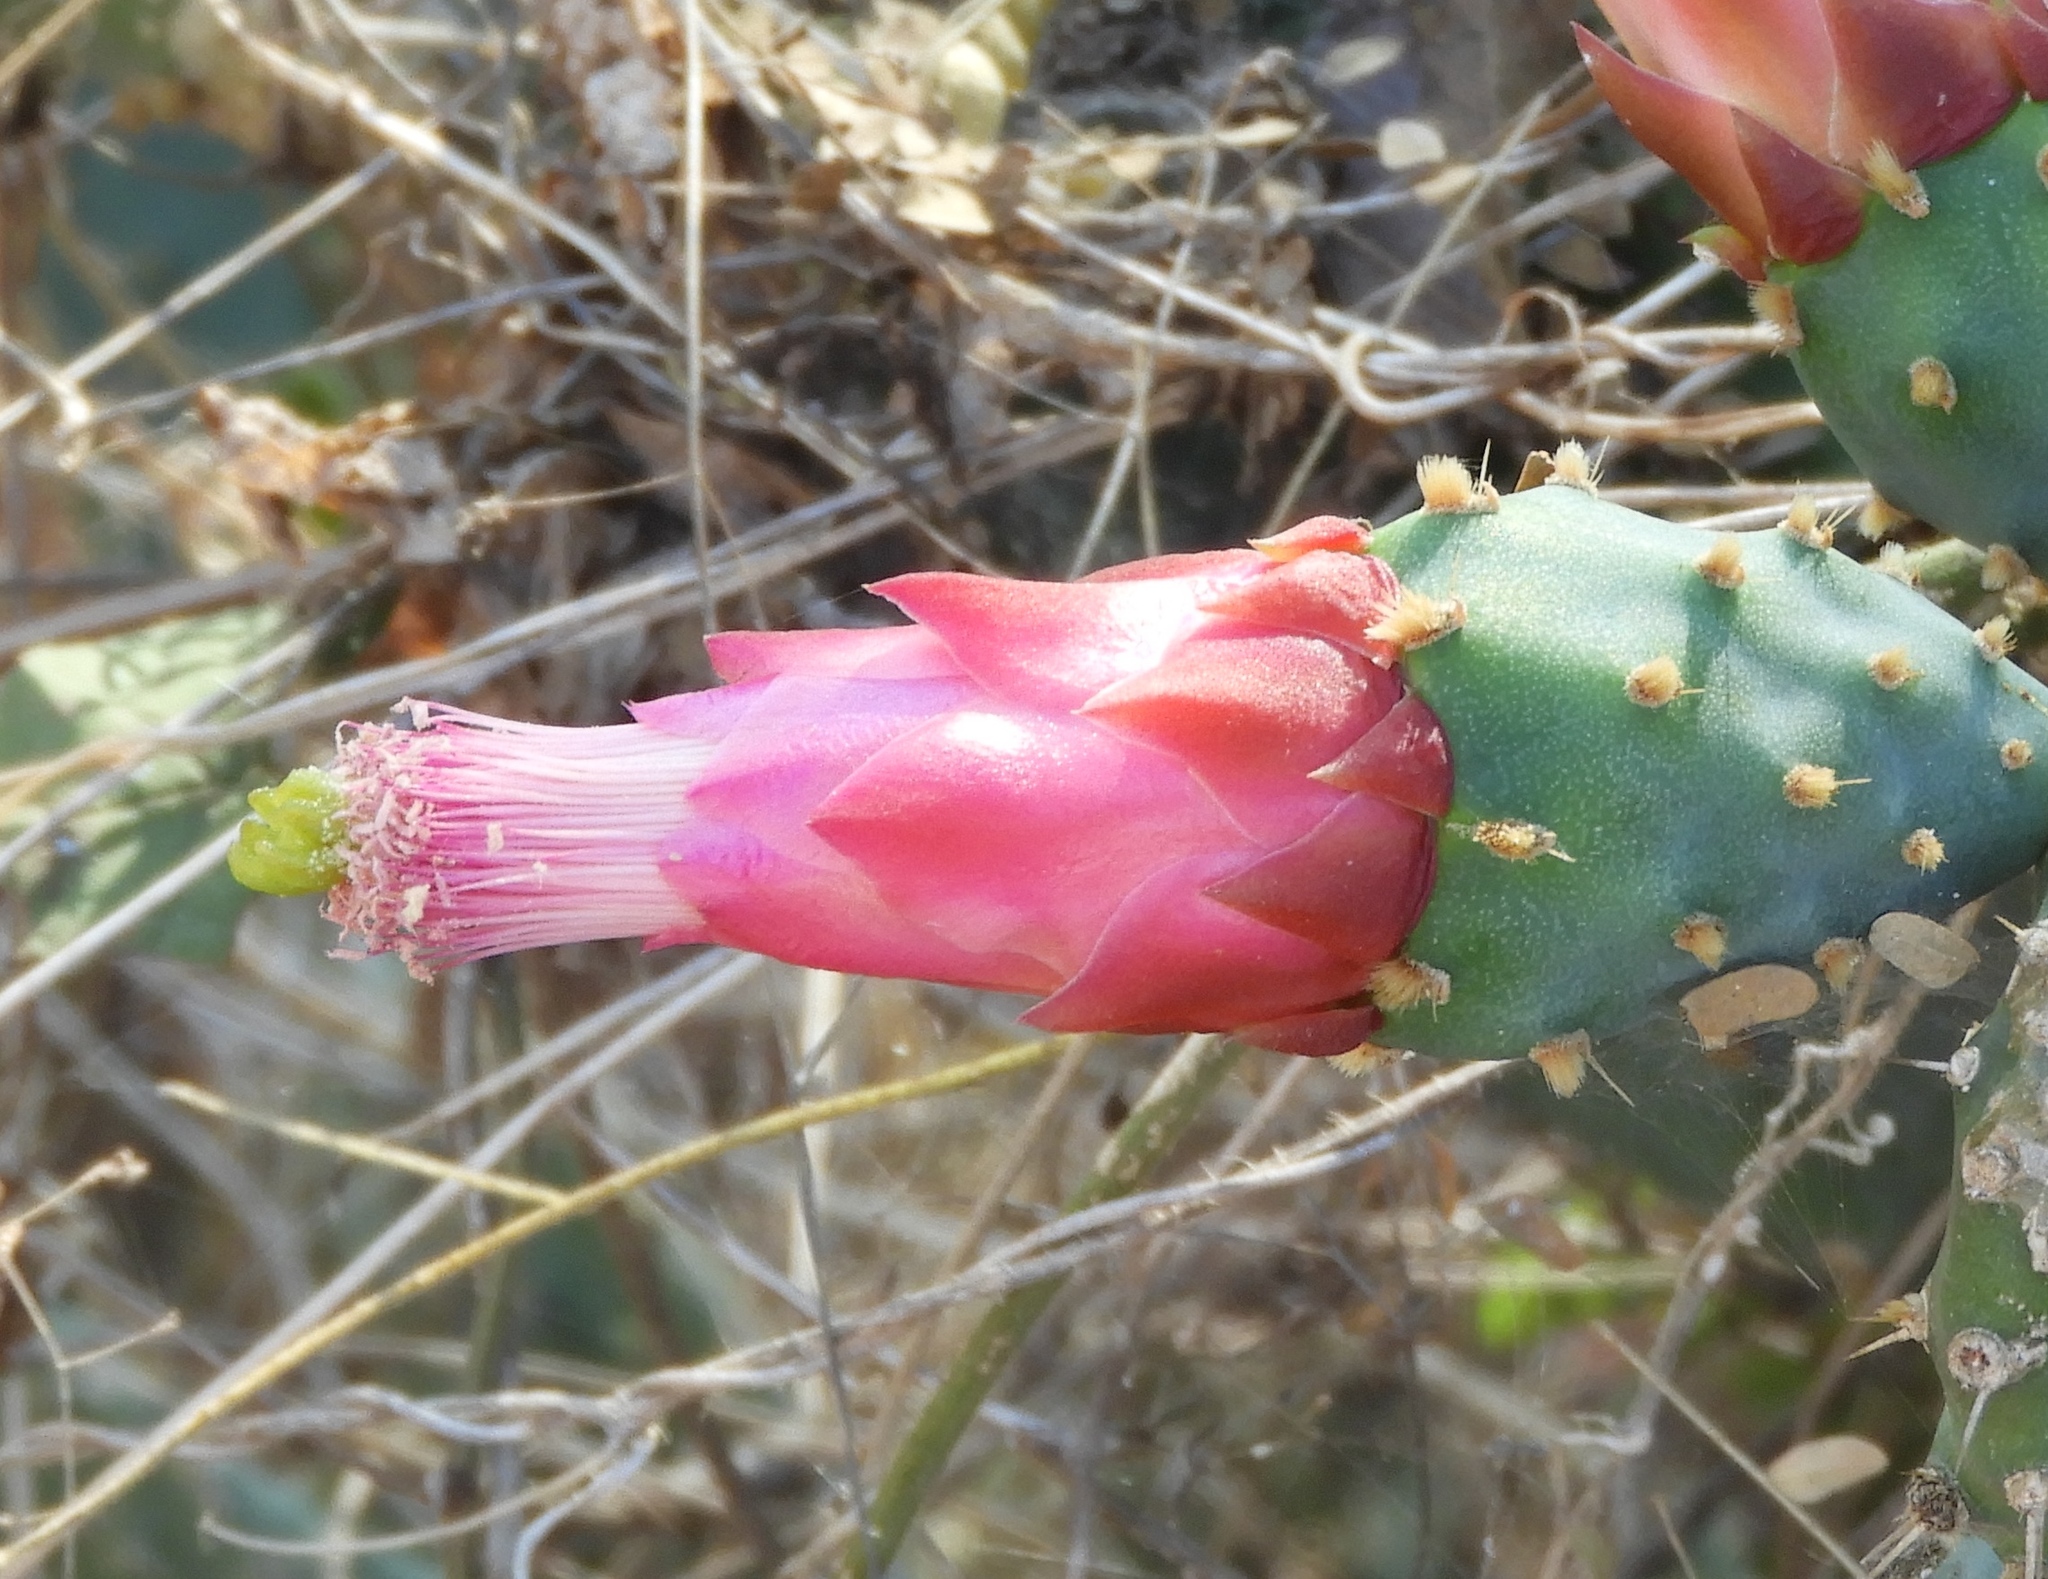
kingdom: Plantae
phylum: Tracheophyta
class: Magnoliopsida
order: Caryophyllales
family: Cactaceae
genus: Opuntia
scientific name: Opuntia cochenillifera
